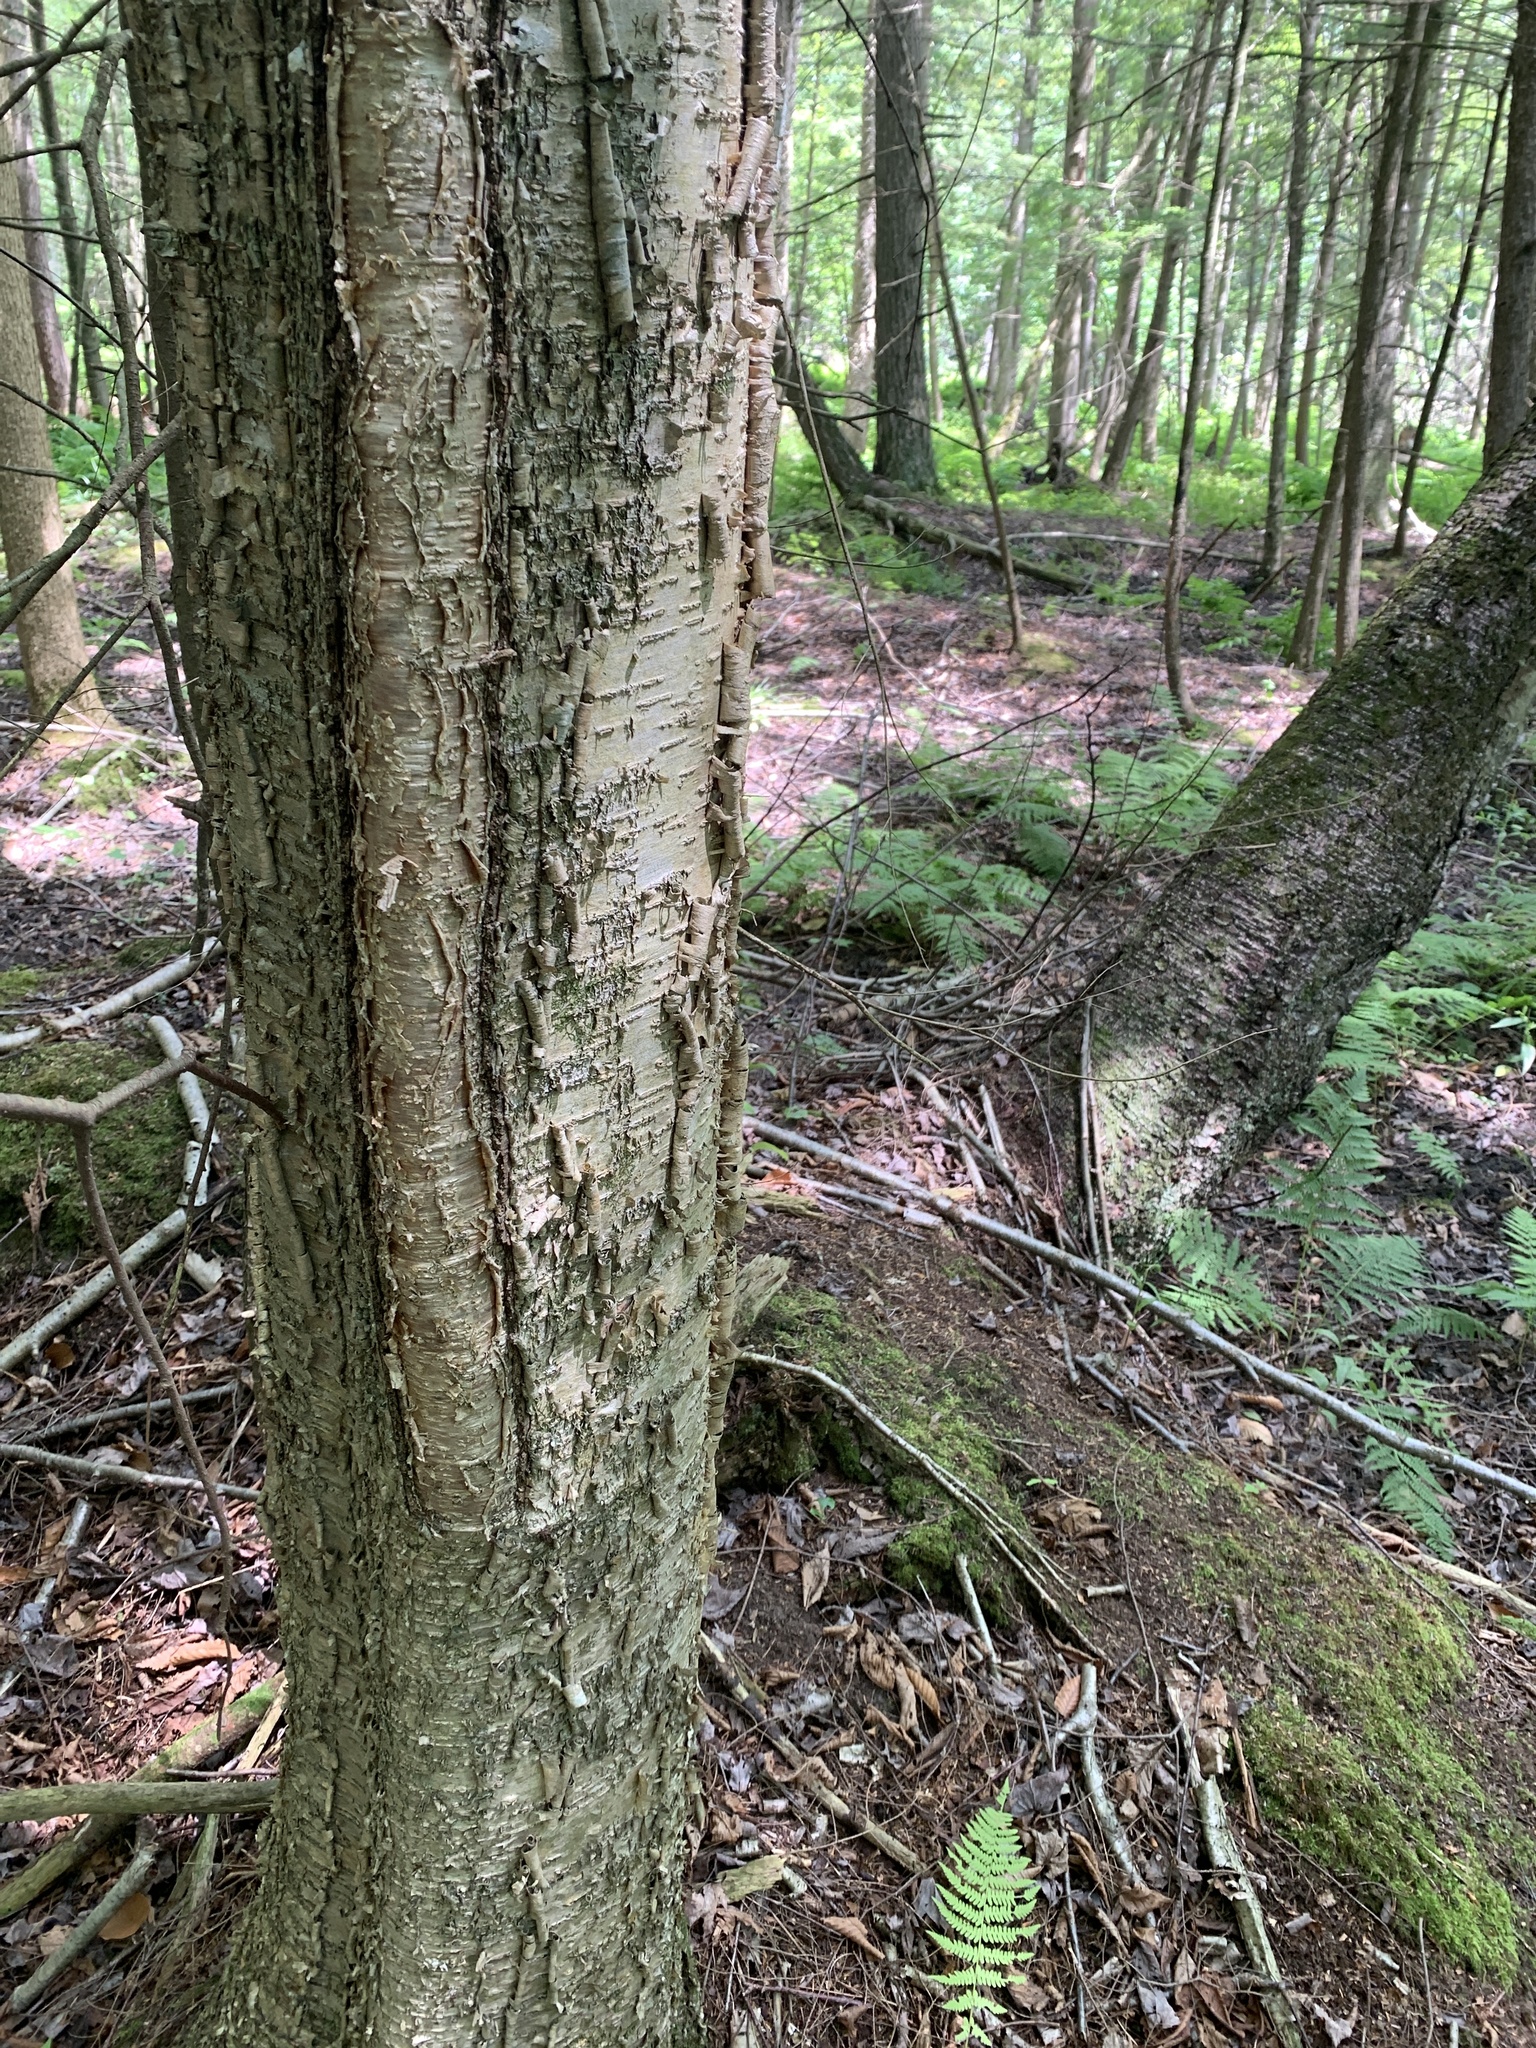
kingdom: Plantae
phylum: Tracheophyta
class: Magnoliopsida
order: Fagales
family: Betulaceae
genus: Betula
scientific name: Betula alleghaniensis
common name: Yellow birch
